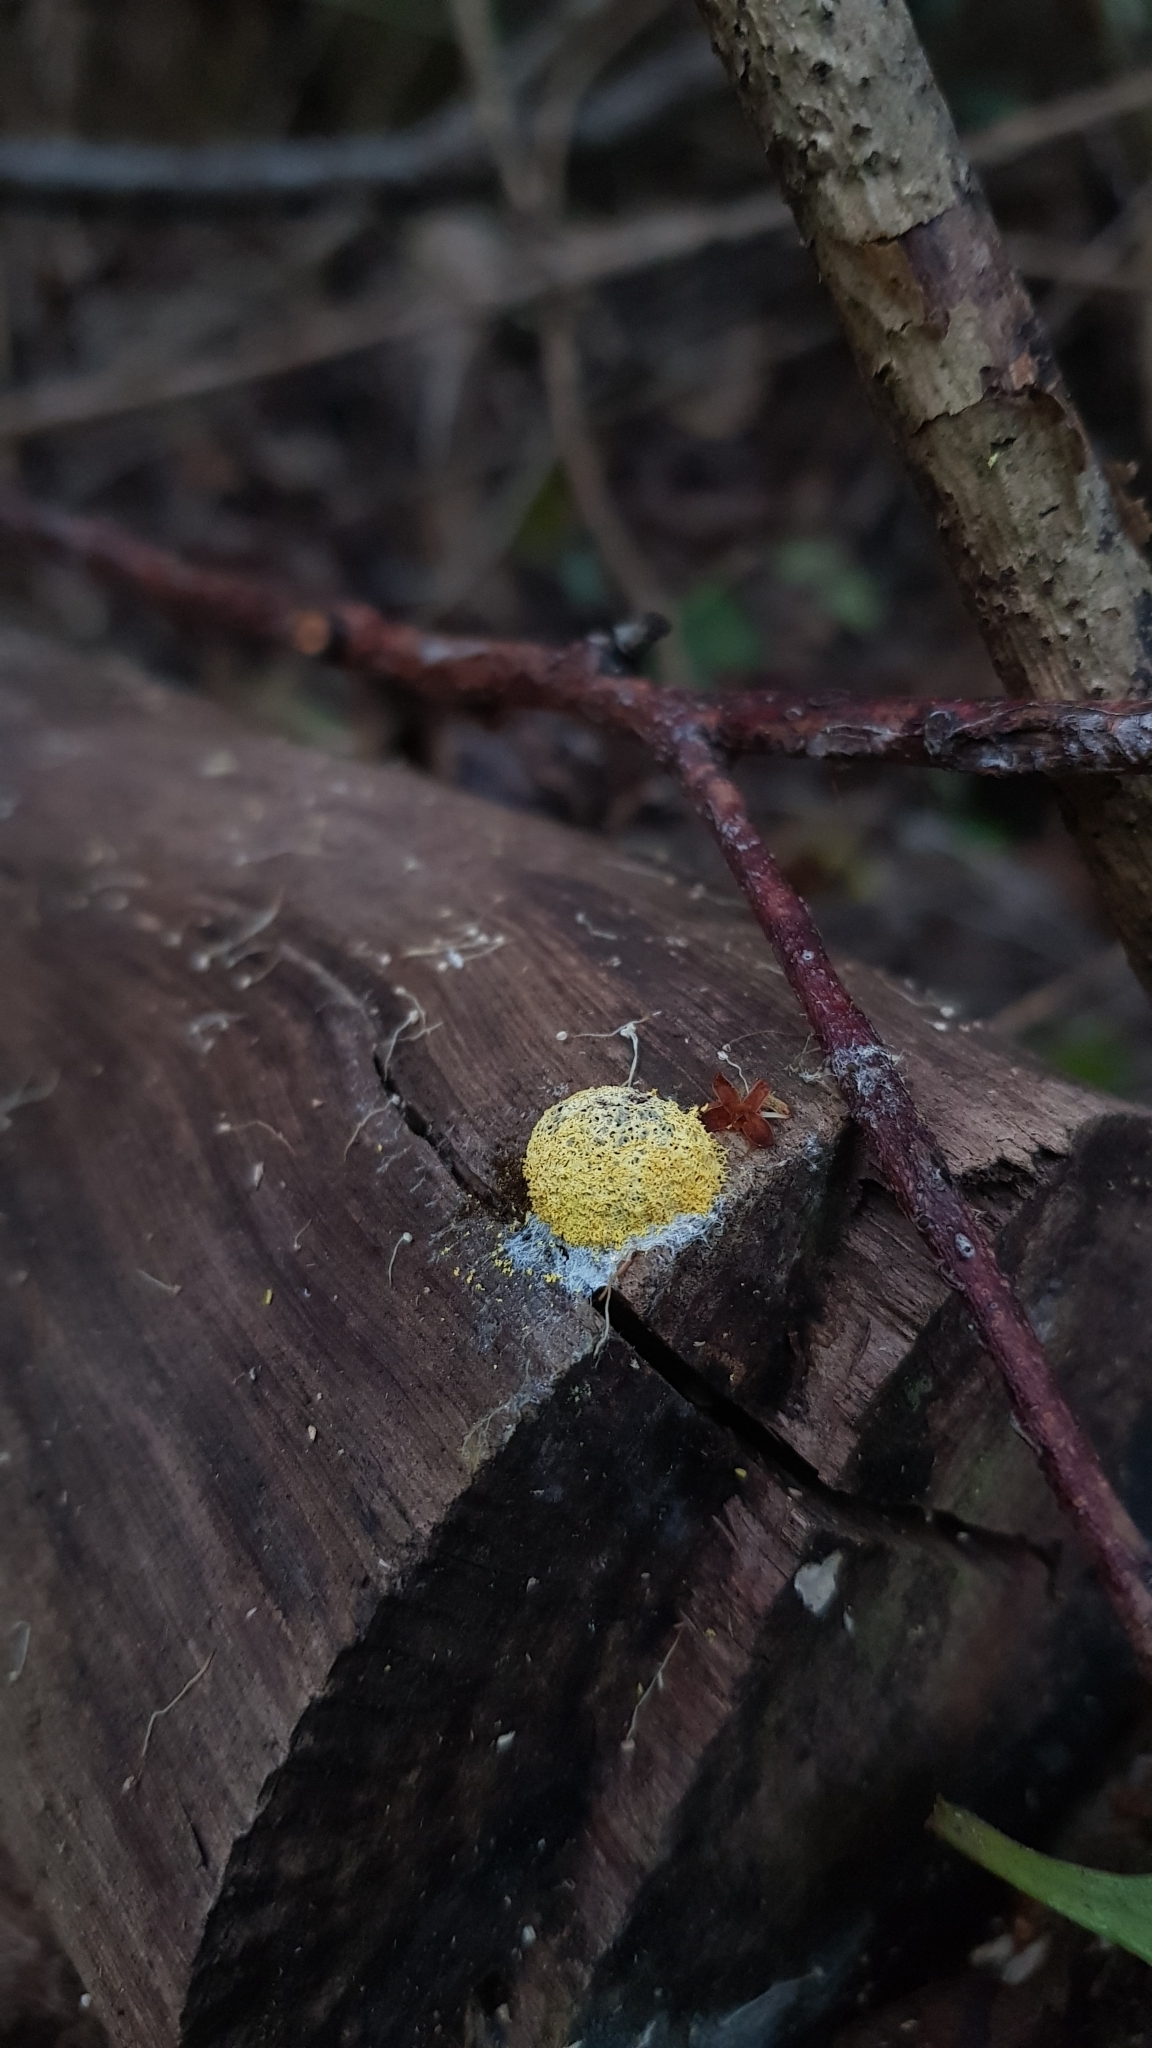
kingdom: Protozoa
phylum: Mycetozoa
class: Myxomycetes
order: Physarales
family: Physaraceae
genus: Fuligo
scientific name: Fuligo septica
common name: Dog vomit slime mold
